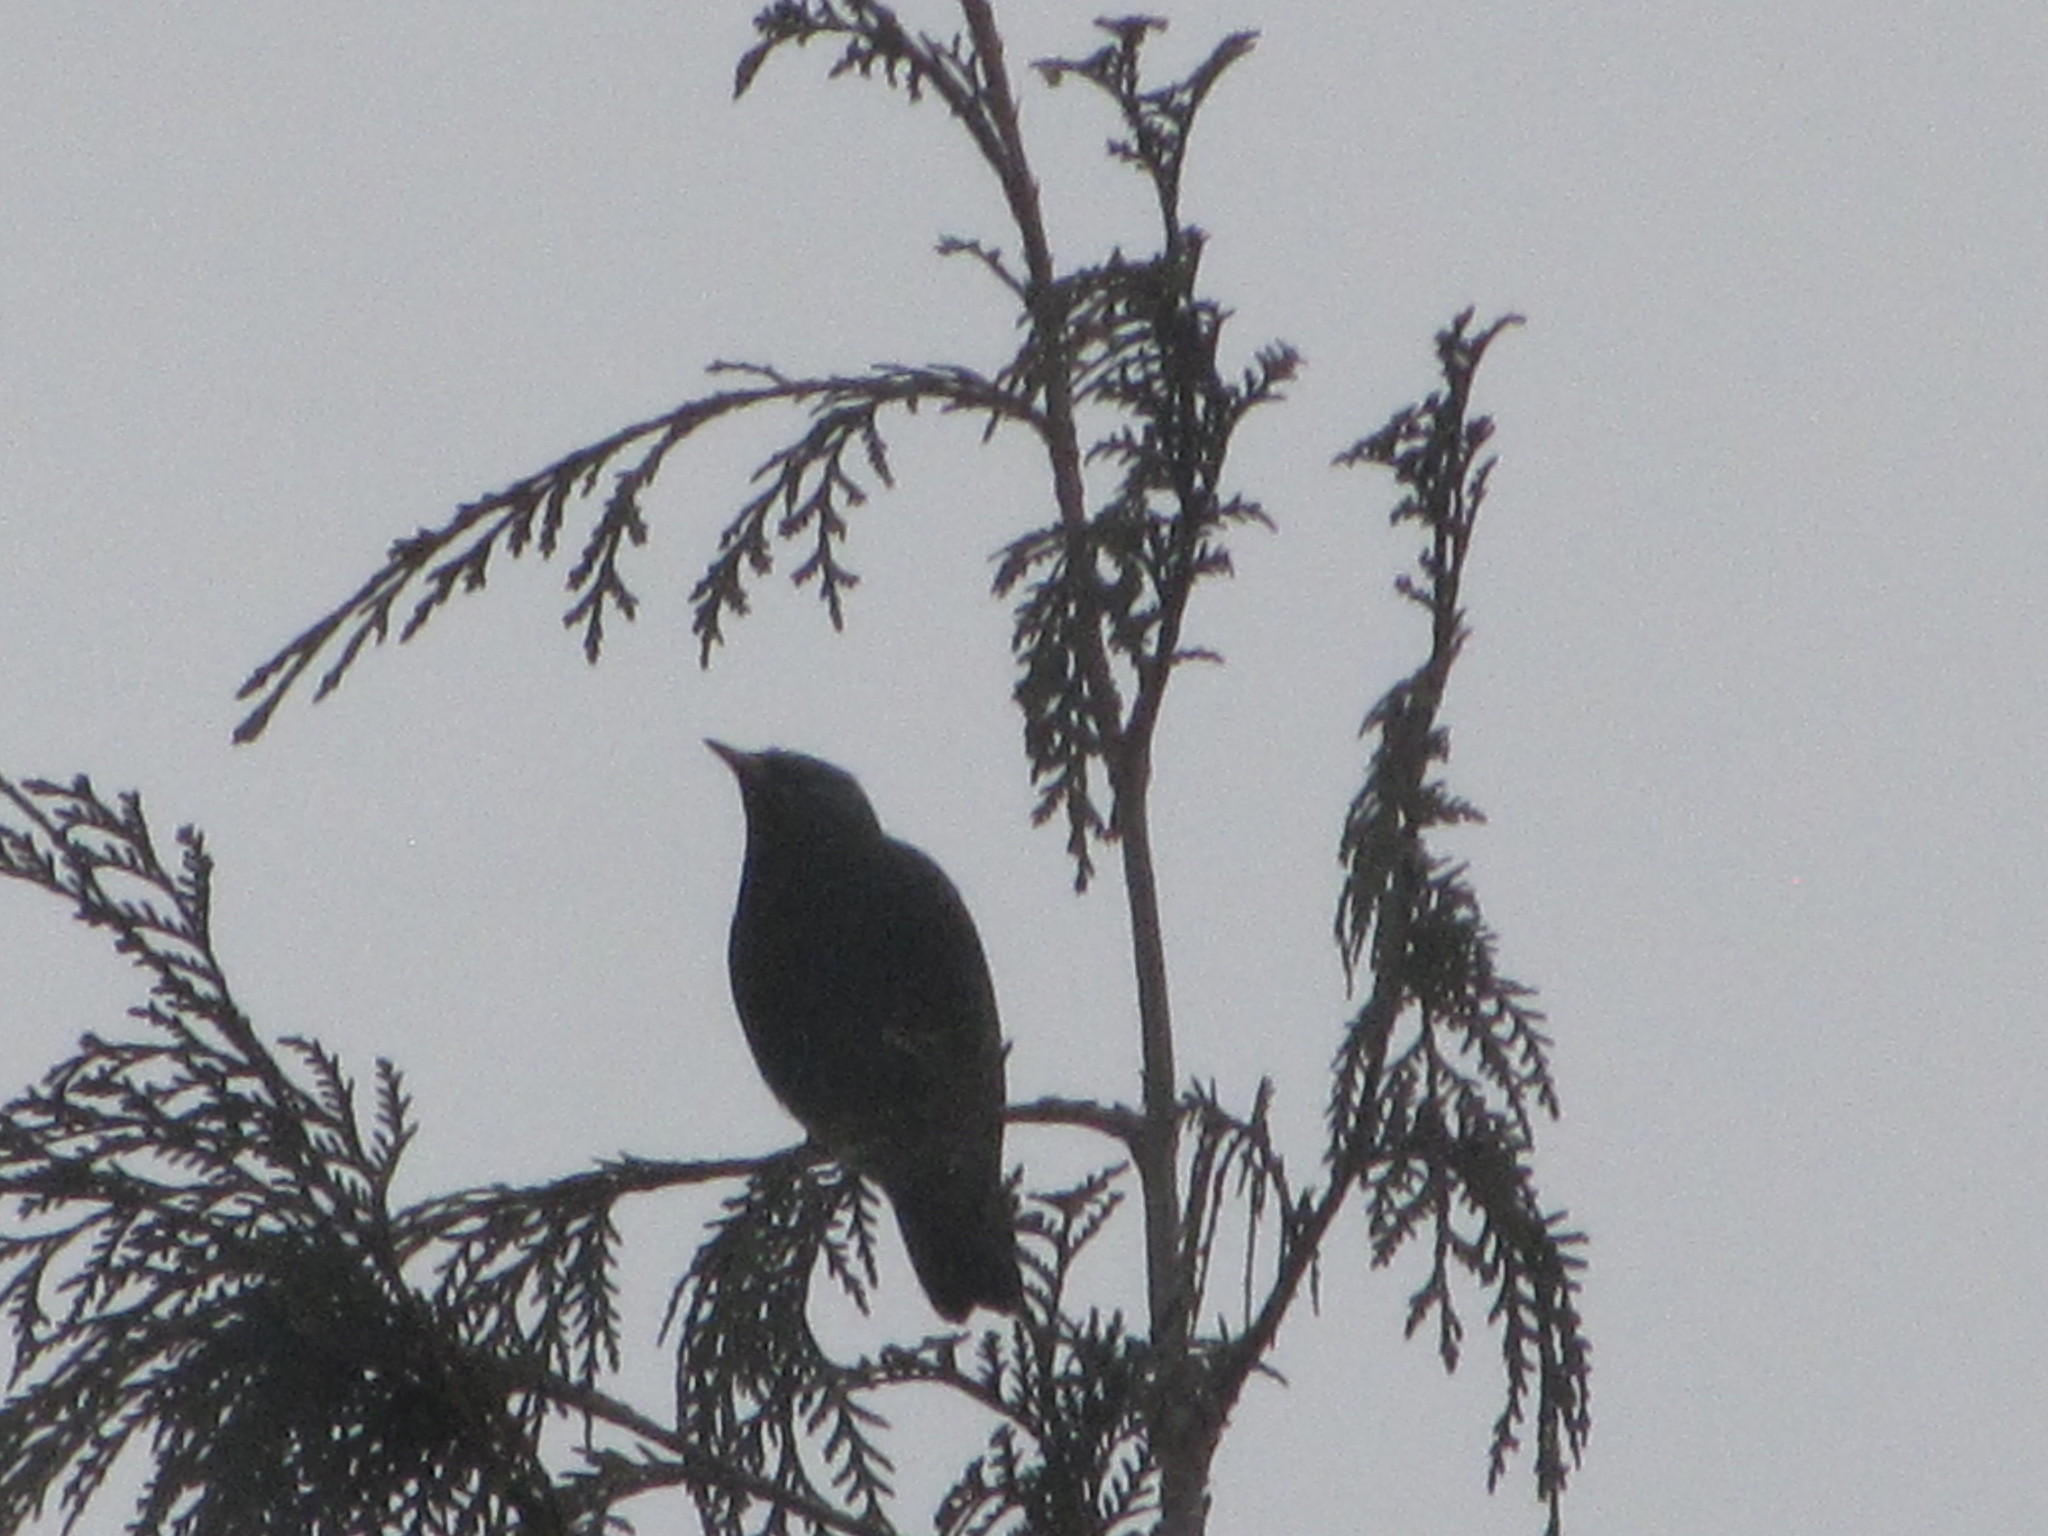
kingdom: Animalia
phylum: Chordata
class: Aves
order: Passeriformes
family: Sturnidae
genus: Sturnus
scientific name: Sturnus vulgaris
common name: Common starling
